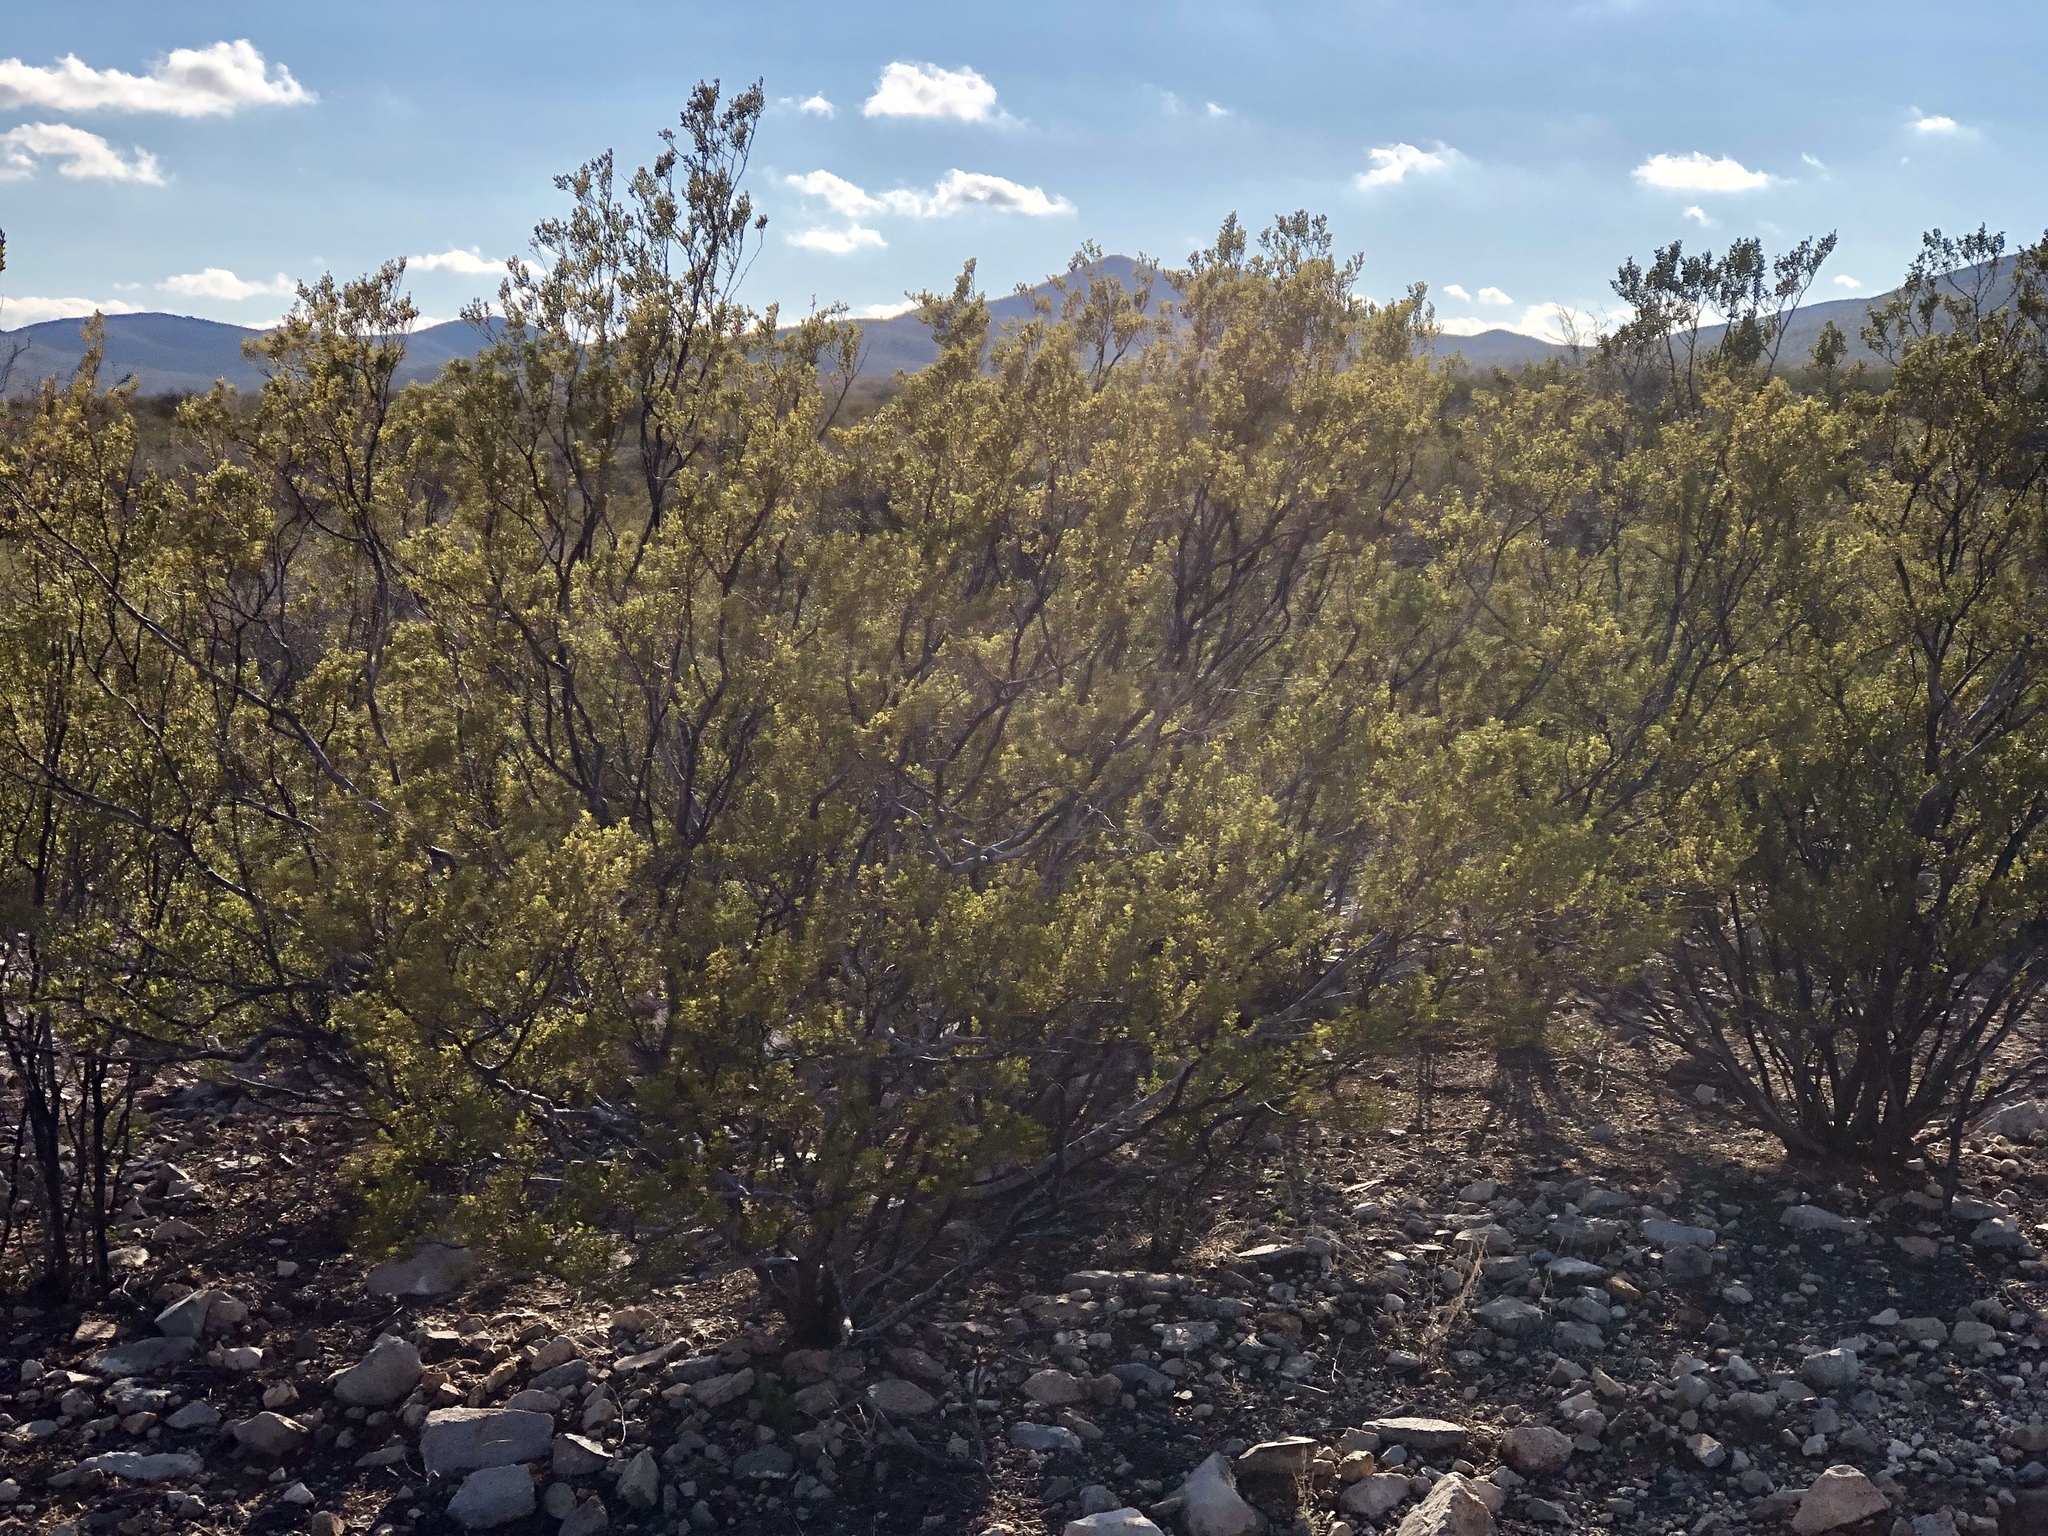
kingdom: Plantae
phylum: Tracheophyta
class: Magnoliopsida
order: Zygophyllales
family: Zygophyllaceae
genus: Larrea
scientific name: Larrea tridentata
